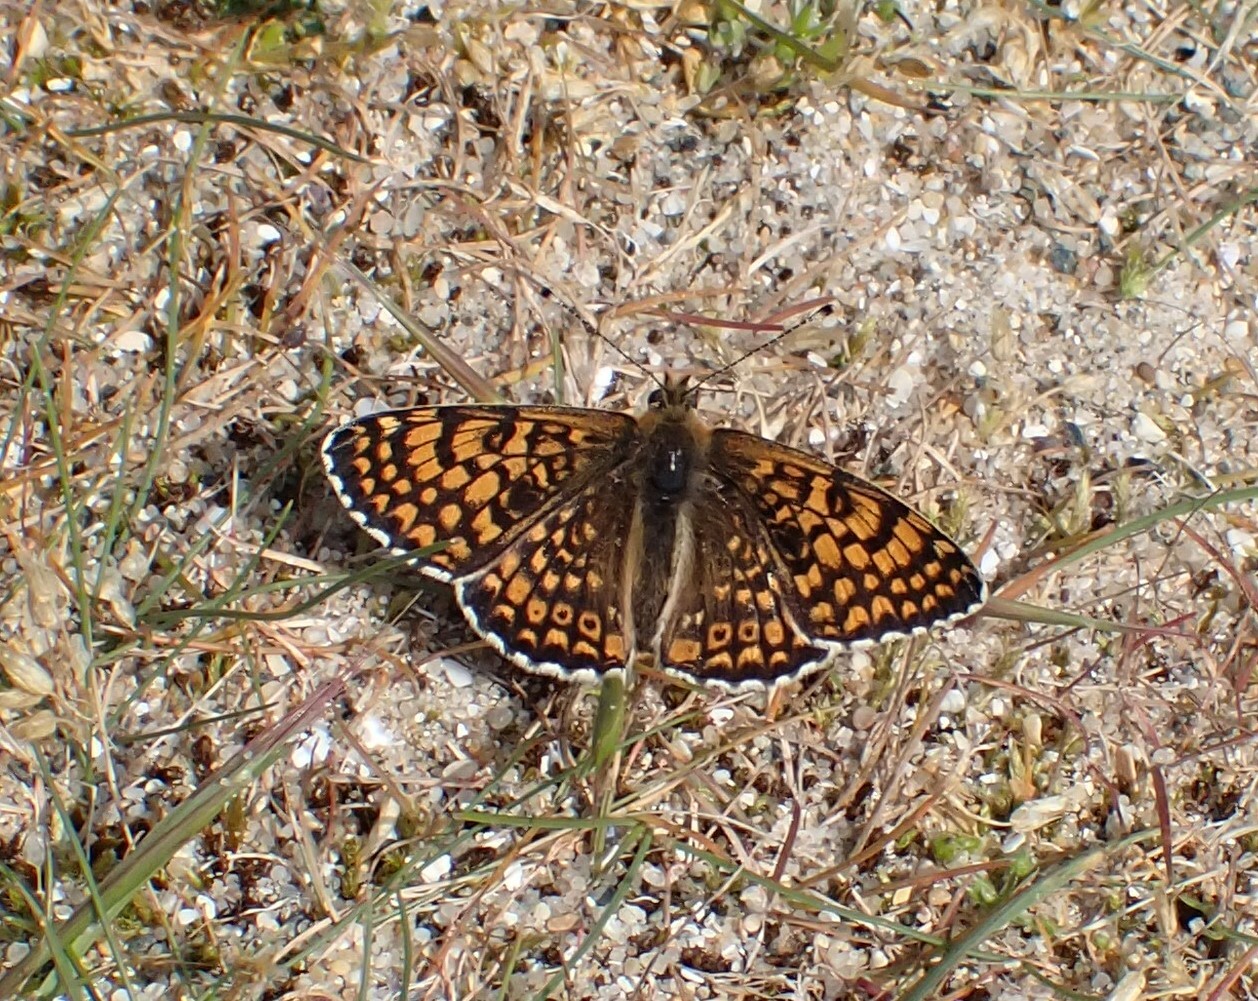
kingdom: Animalia
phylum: Arthropoda
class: Insecta
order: Lepidoptera
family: Nymphalidae
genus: Melitaea
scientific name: Melitaea cinxia
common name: Glanville fritillary
